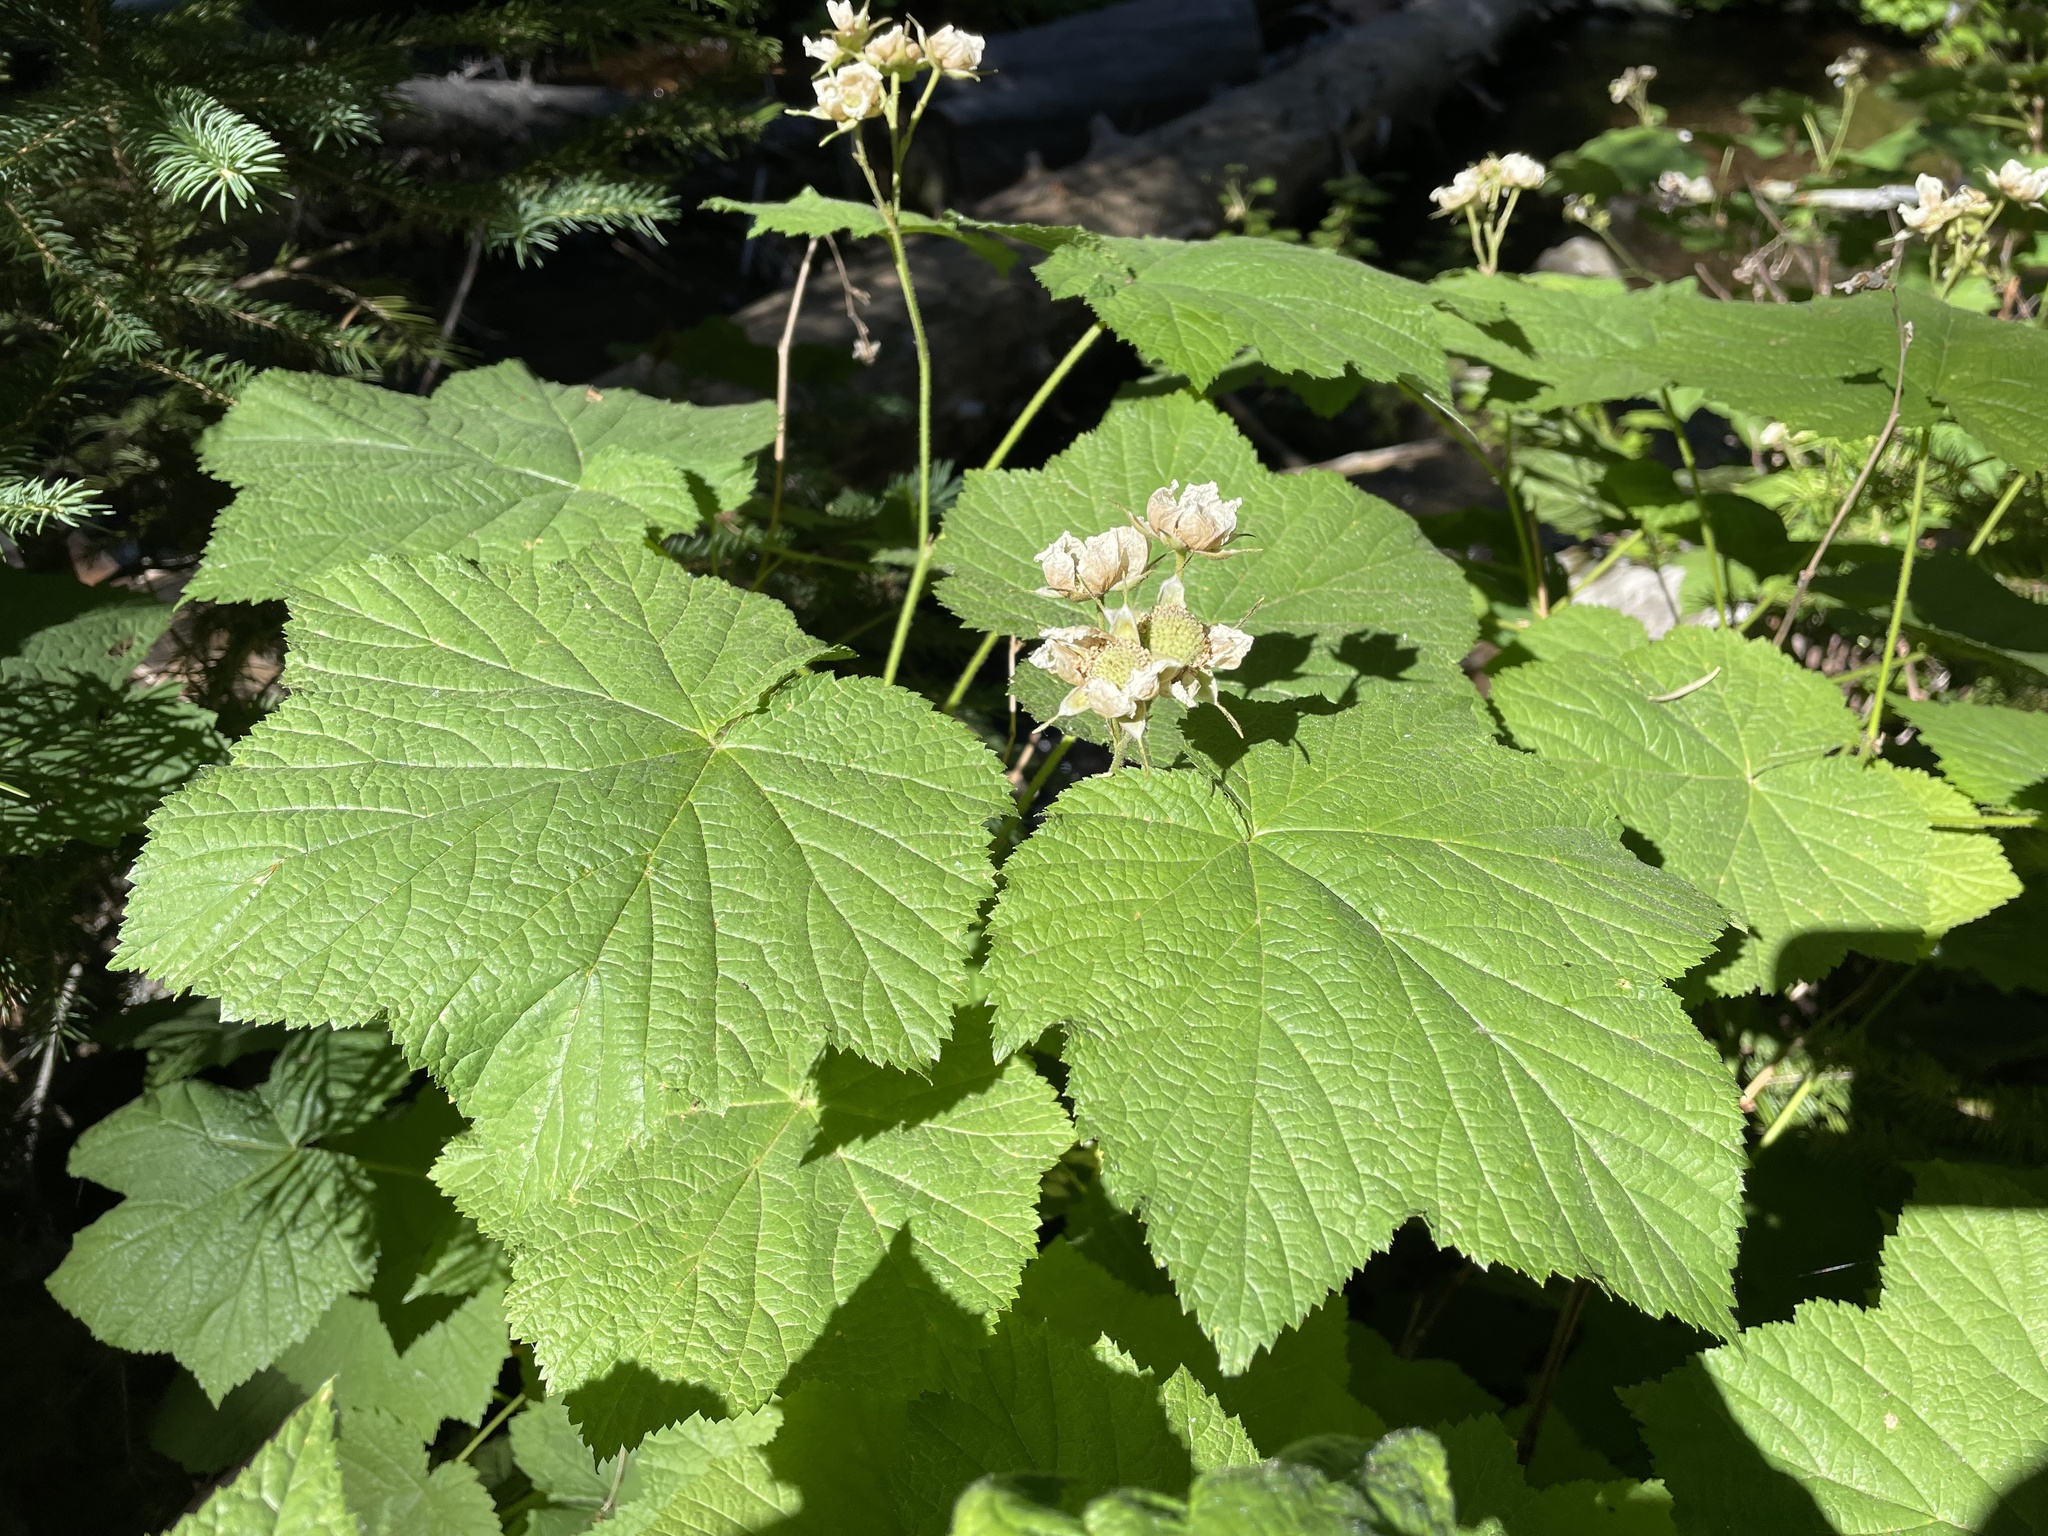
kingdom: Plantae
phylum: Tracheophyta
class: Magnoliopsida
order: Rosales
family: Rosaceae
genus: Rubus
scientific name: Rubus parviflorus
